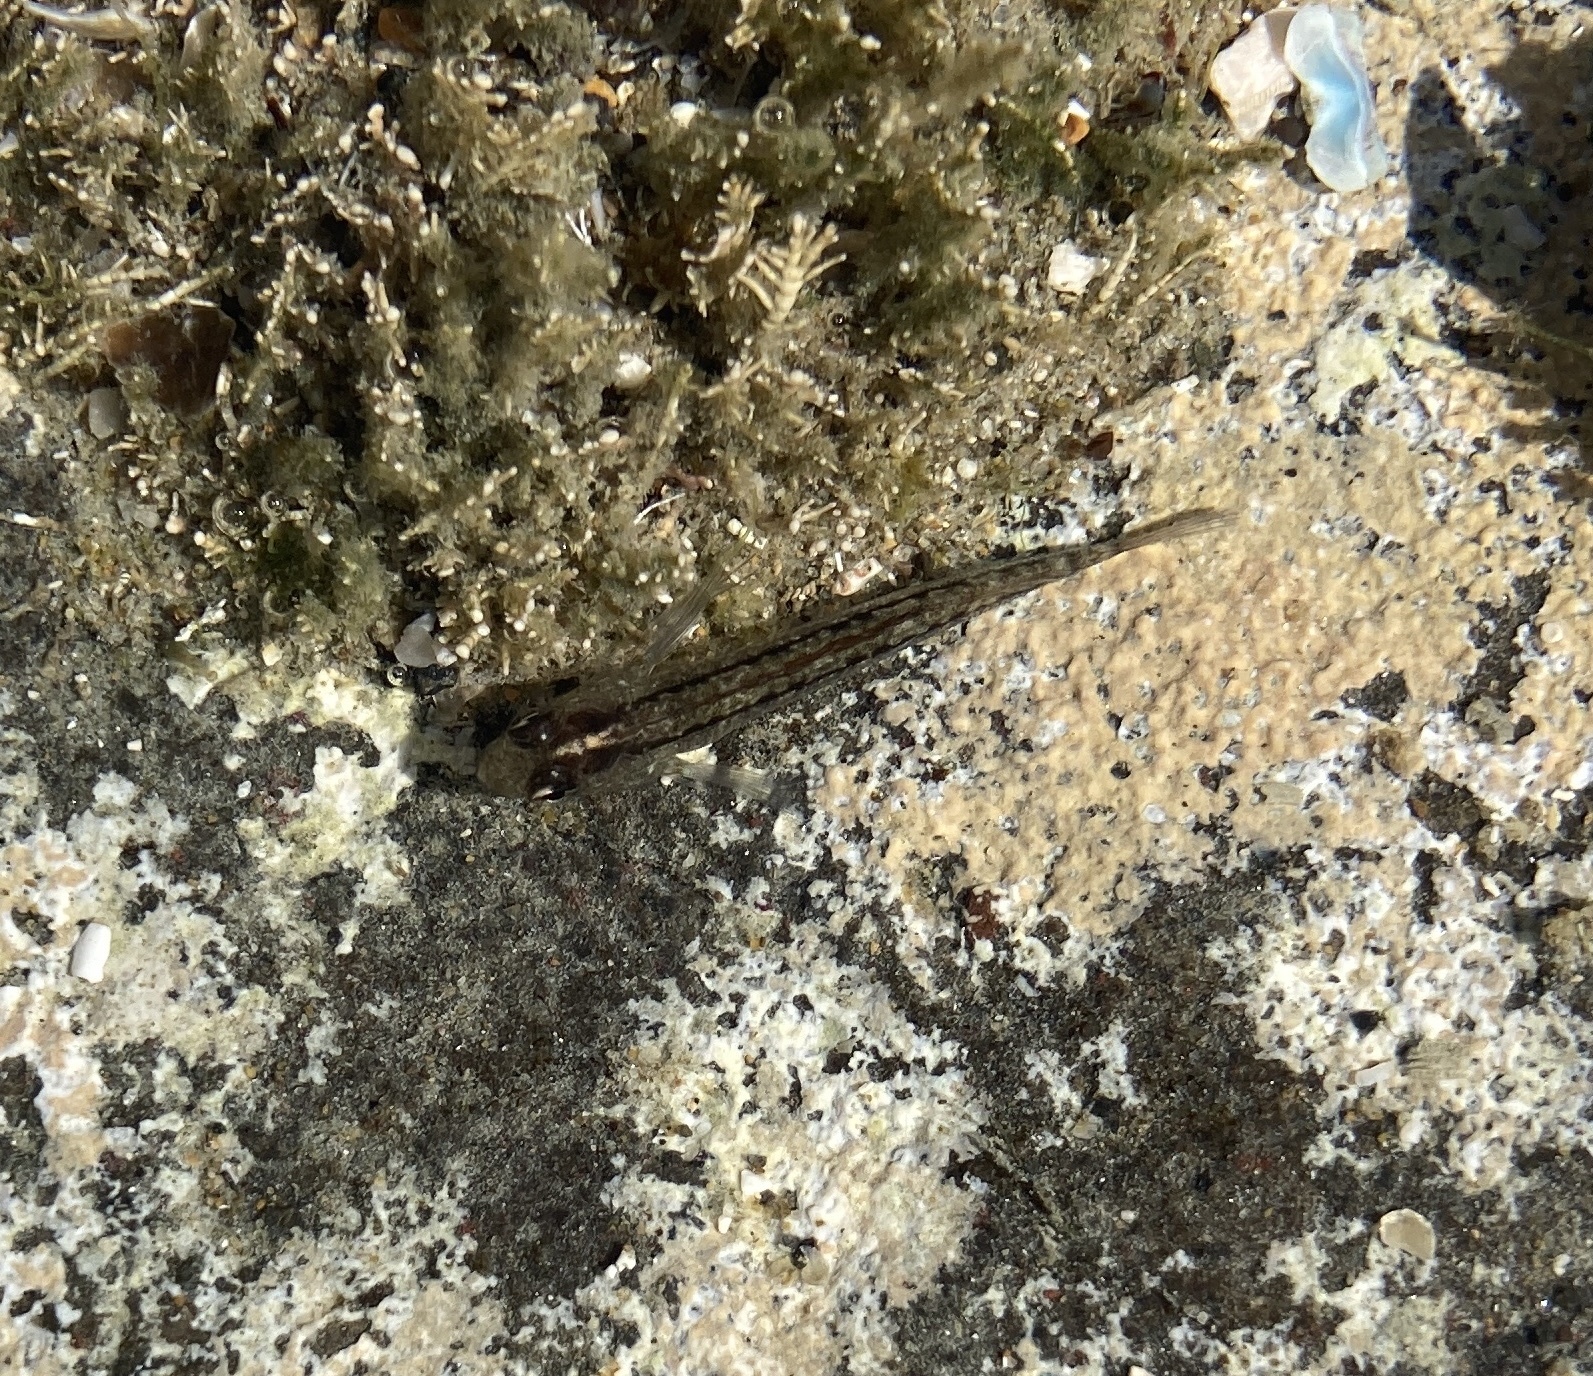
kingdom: Animalia
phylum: Chordata
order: Perciformes
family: Tripterygiidae
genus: Forsterygion
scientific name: Forsterygion lapillum
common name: Common triplefin
